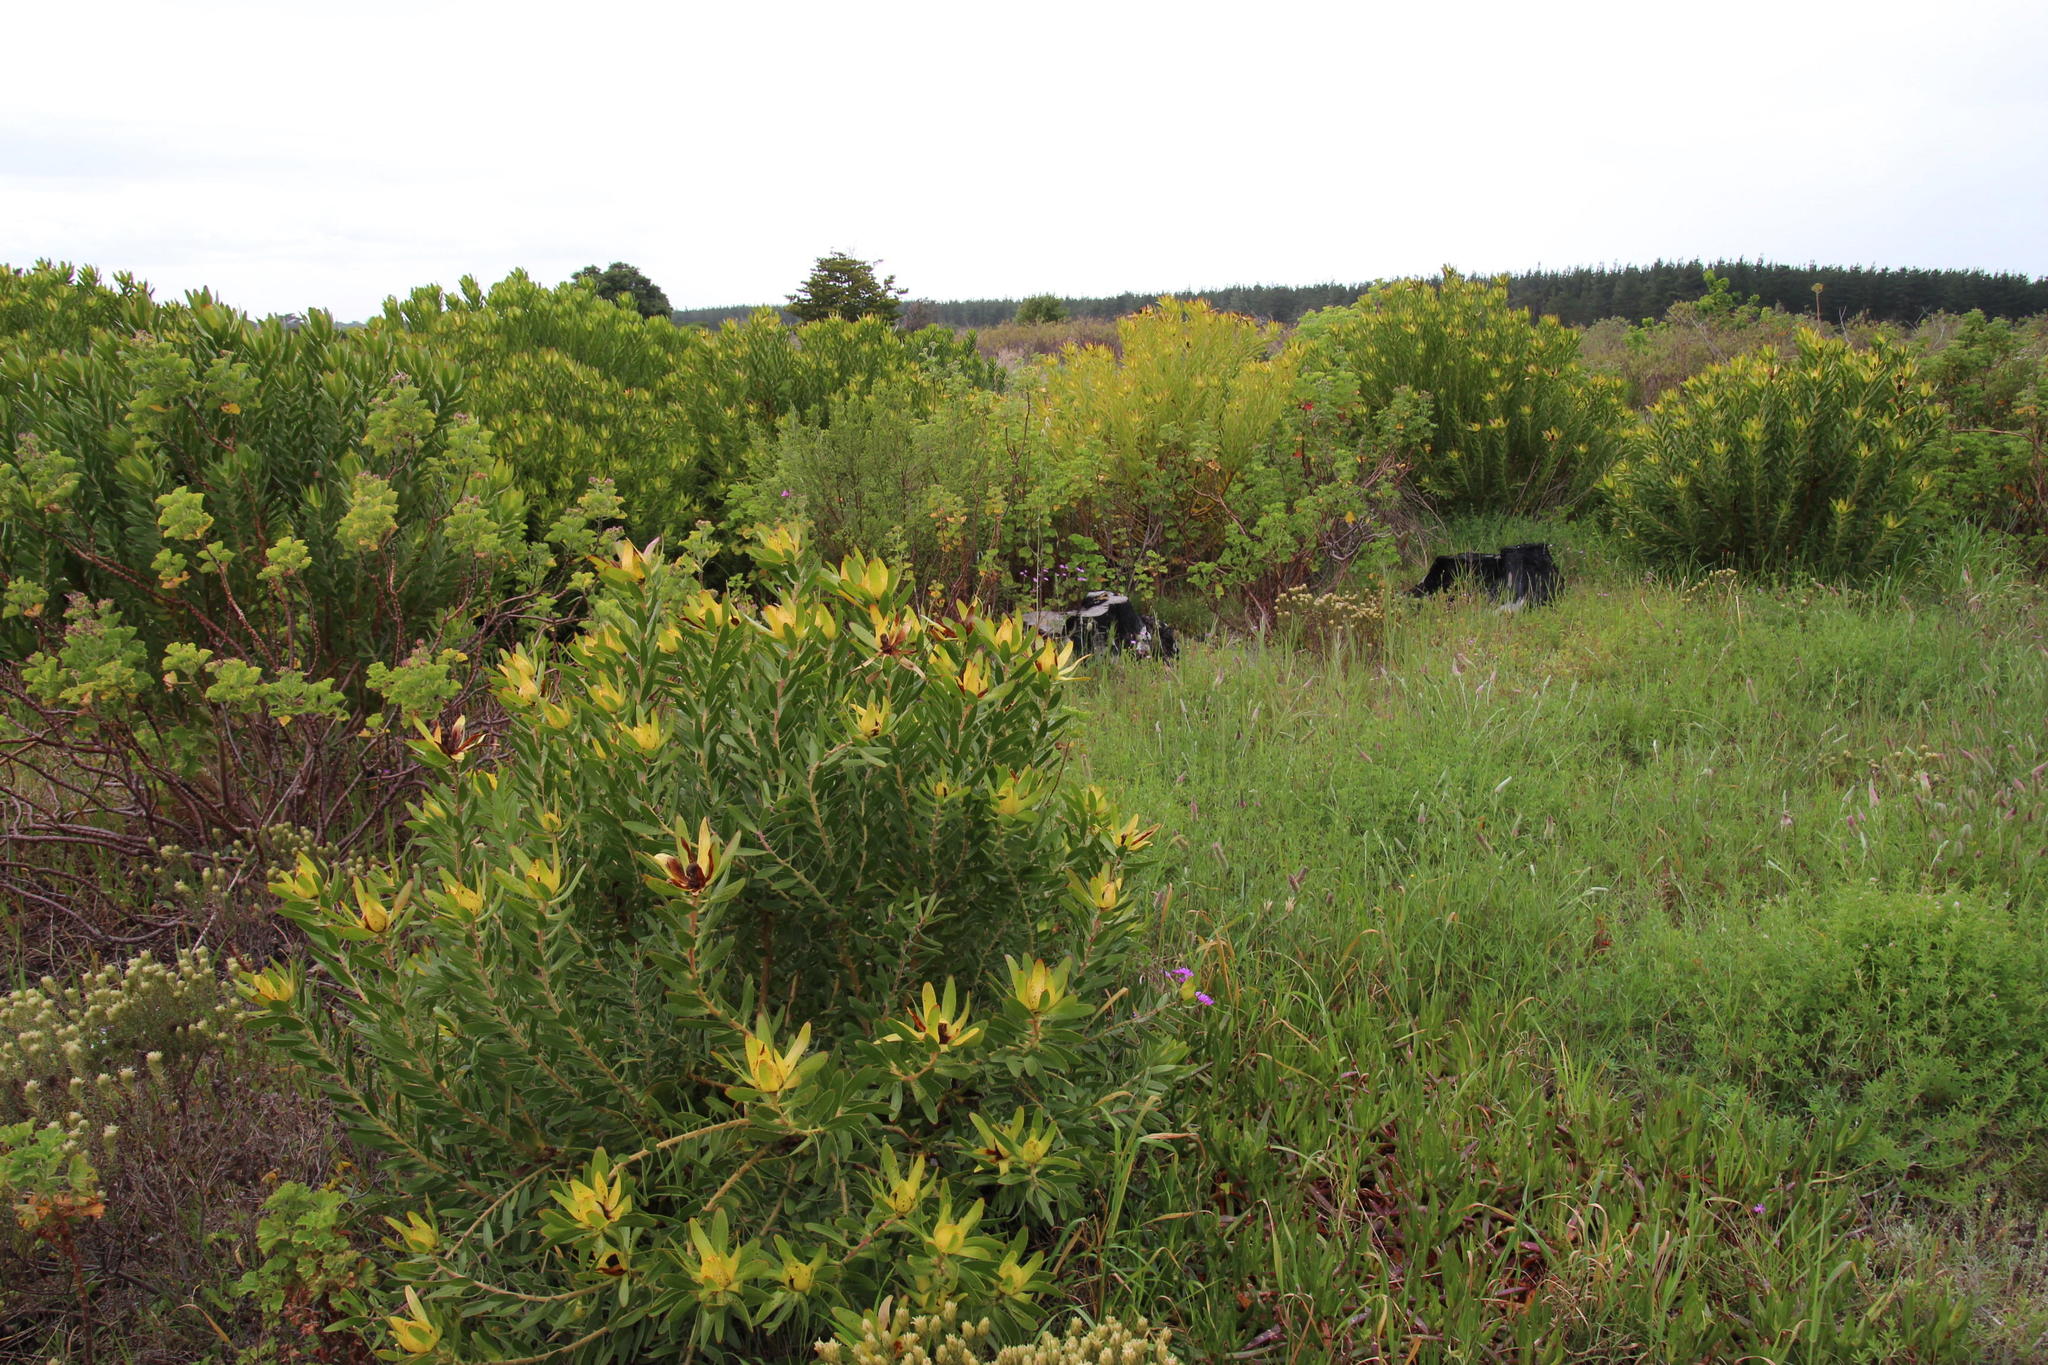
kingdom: Plantae
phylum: Tracheophyta
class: Magnoliopsida
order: Proteales
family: Proteaceae
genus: Leucadendron
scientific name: Leucadendron laureolum
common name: Golden sunshinebush
